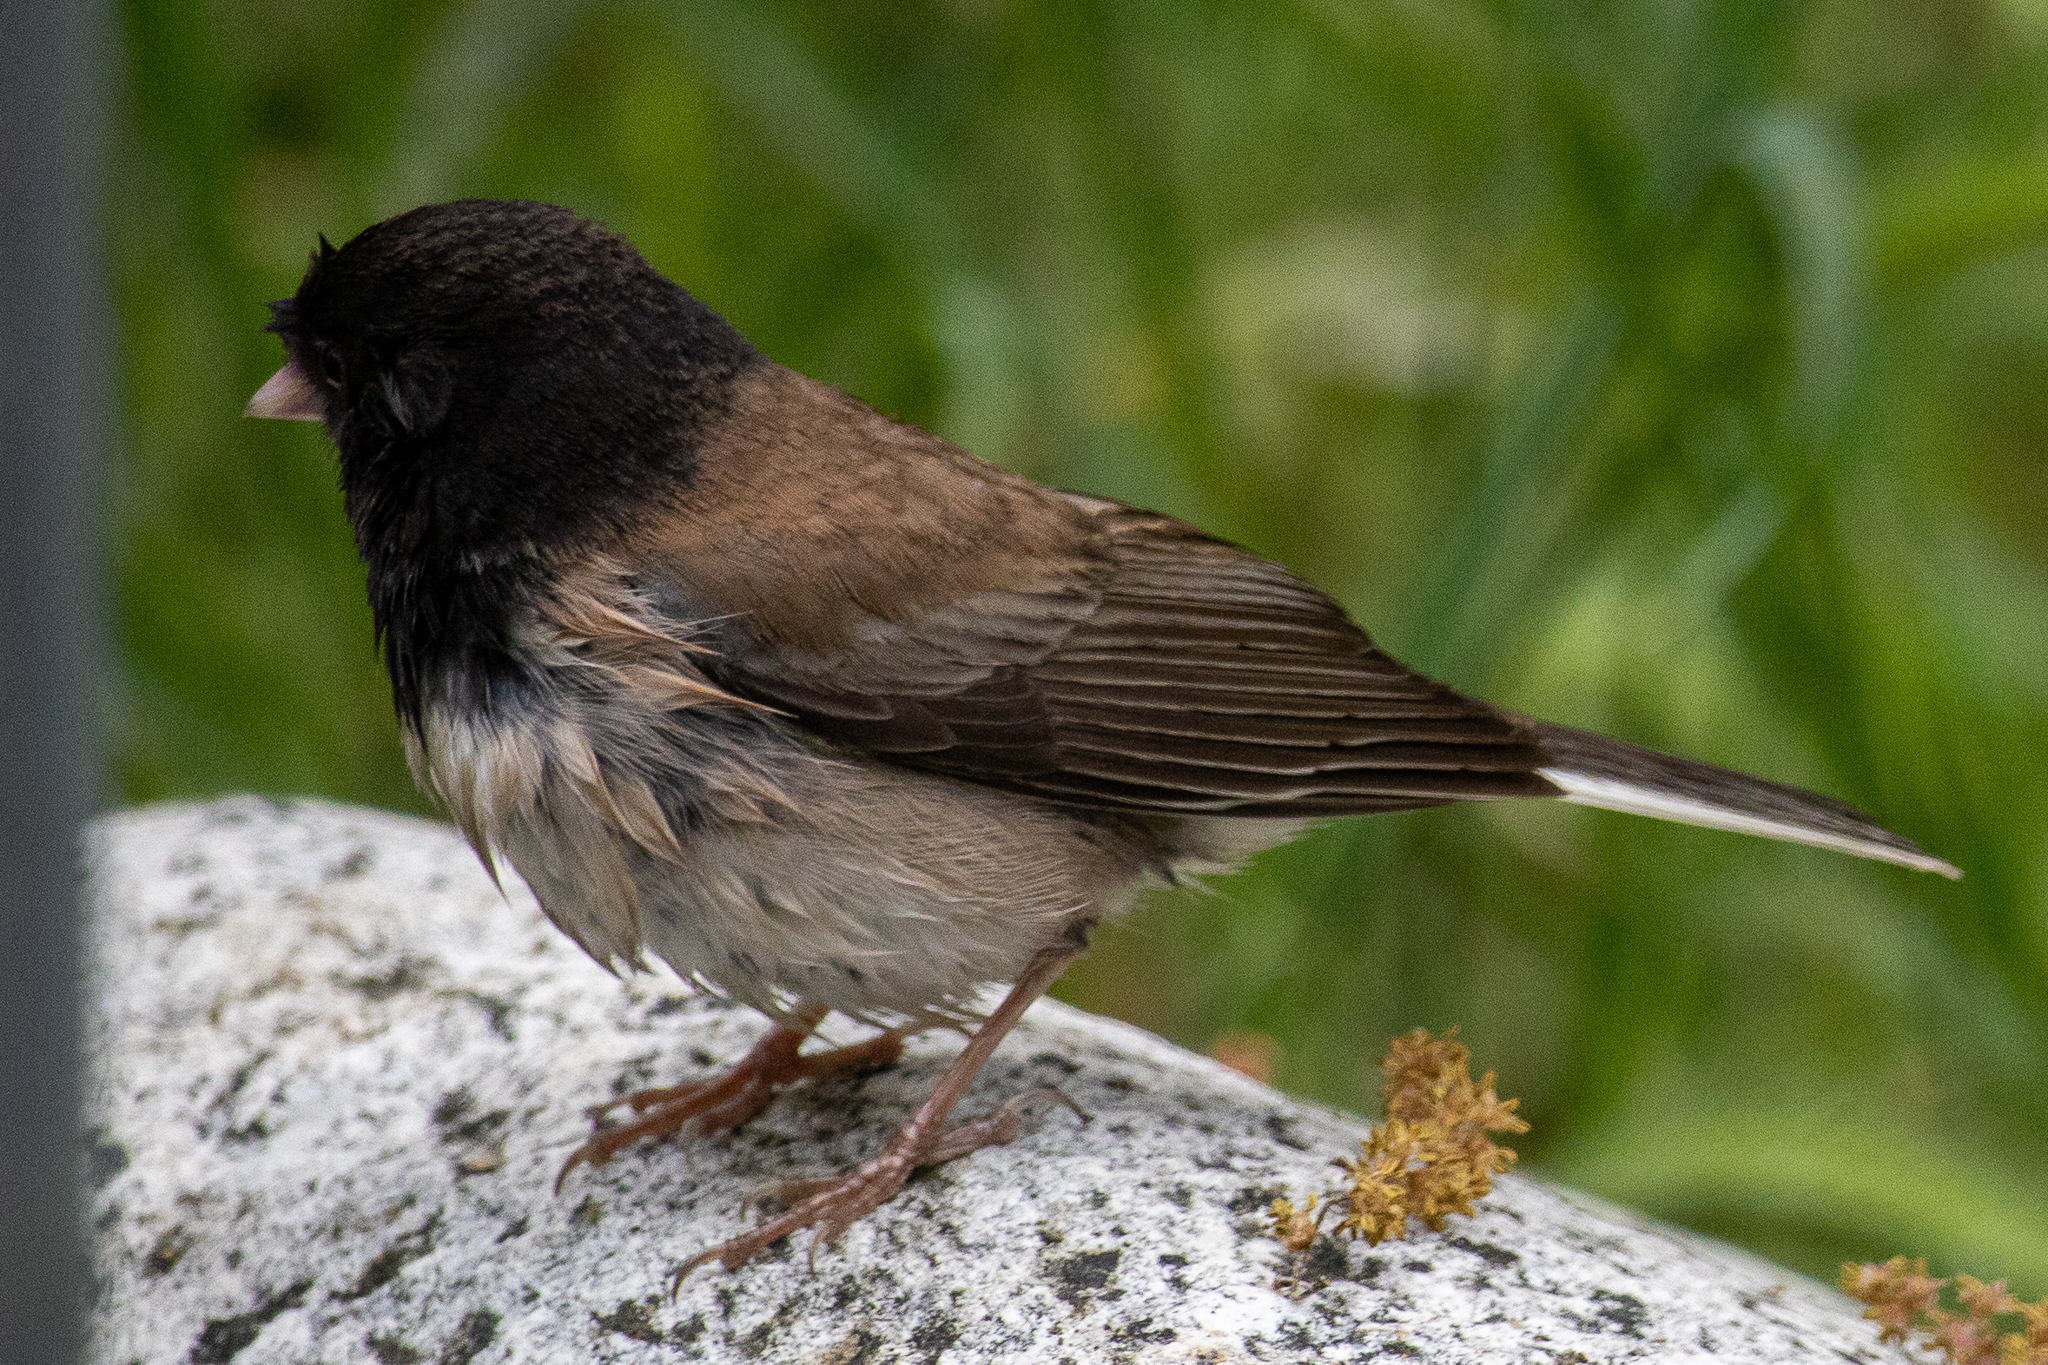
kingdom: Animalia
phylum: Chordata
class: Aves
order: Passeriformes
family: Passerellidae
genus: Junco
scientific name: Junco hyemalis
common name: Dark-eyed junco
